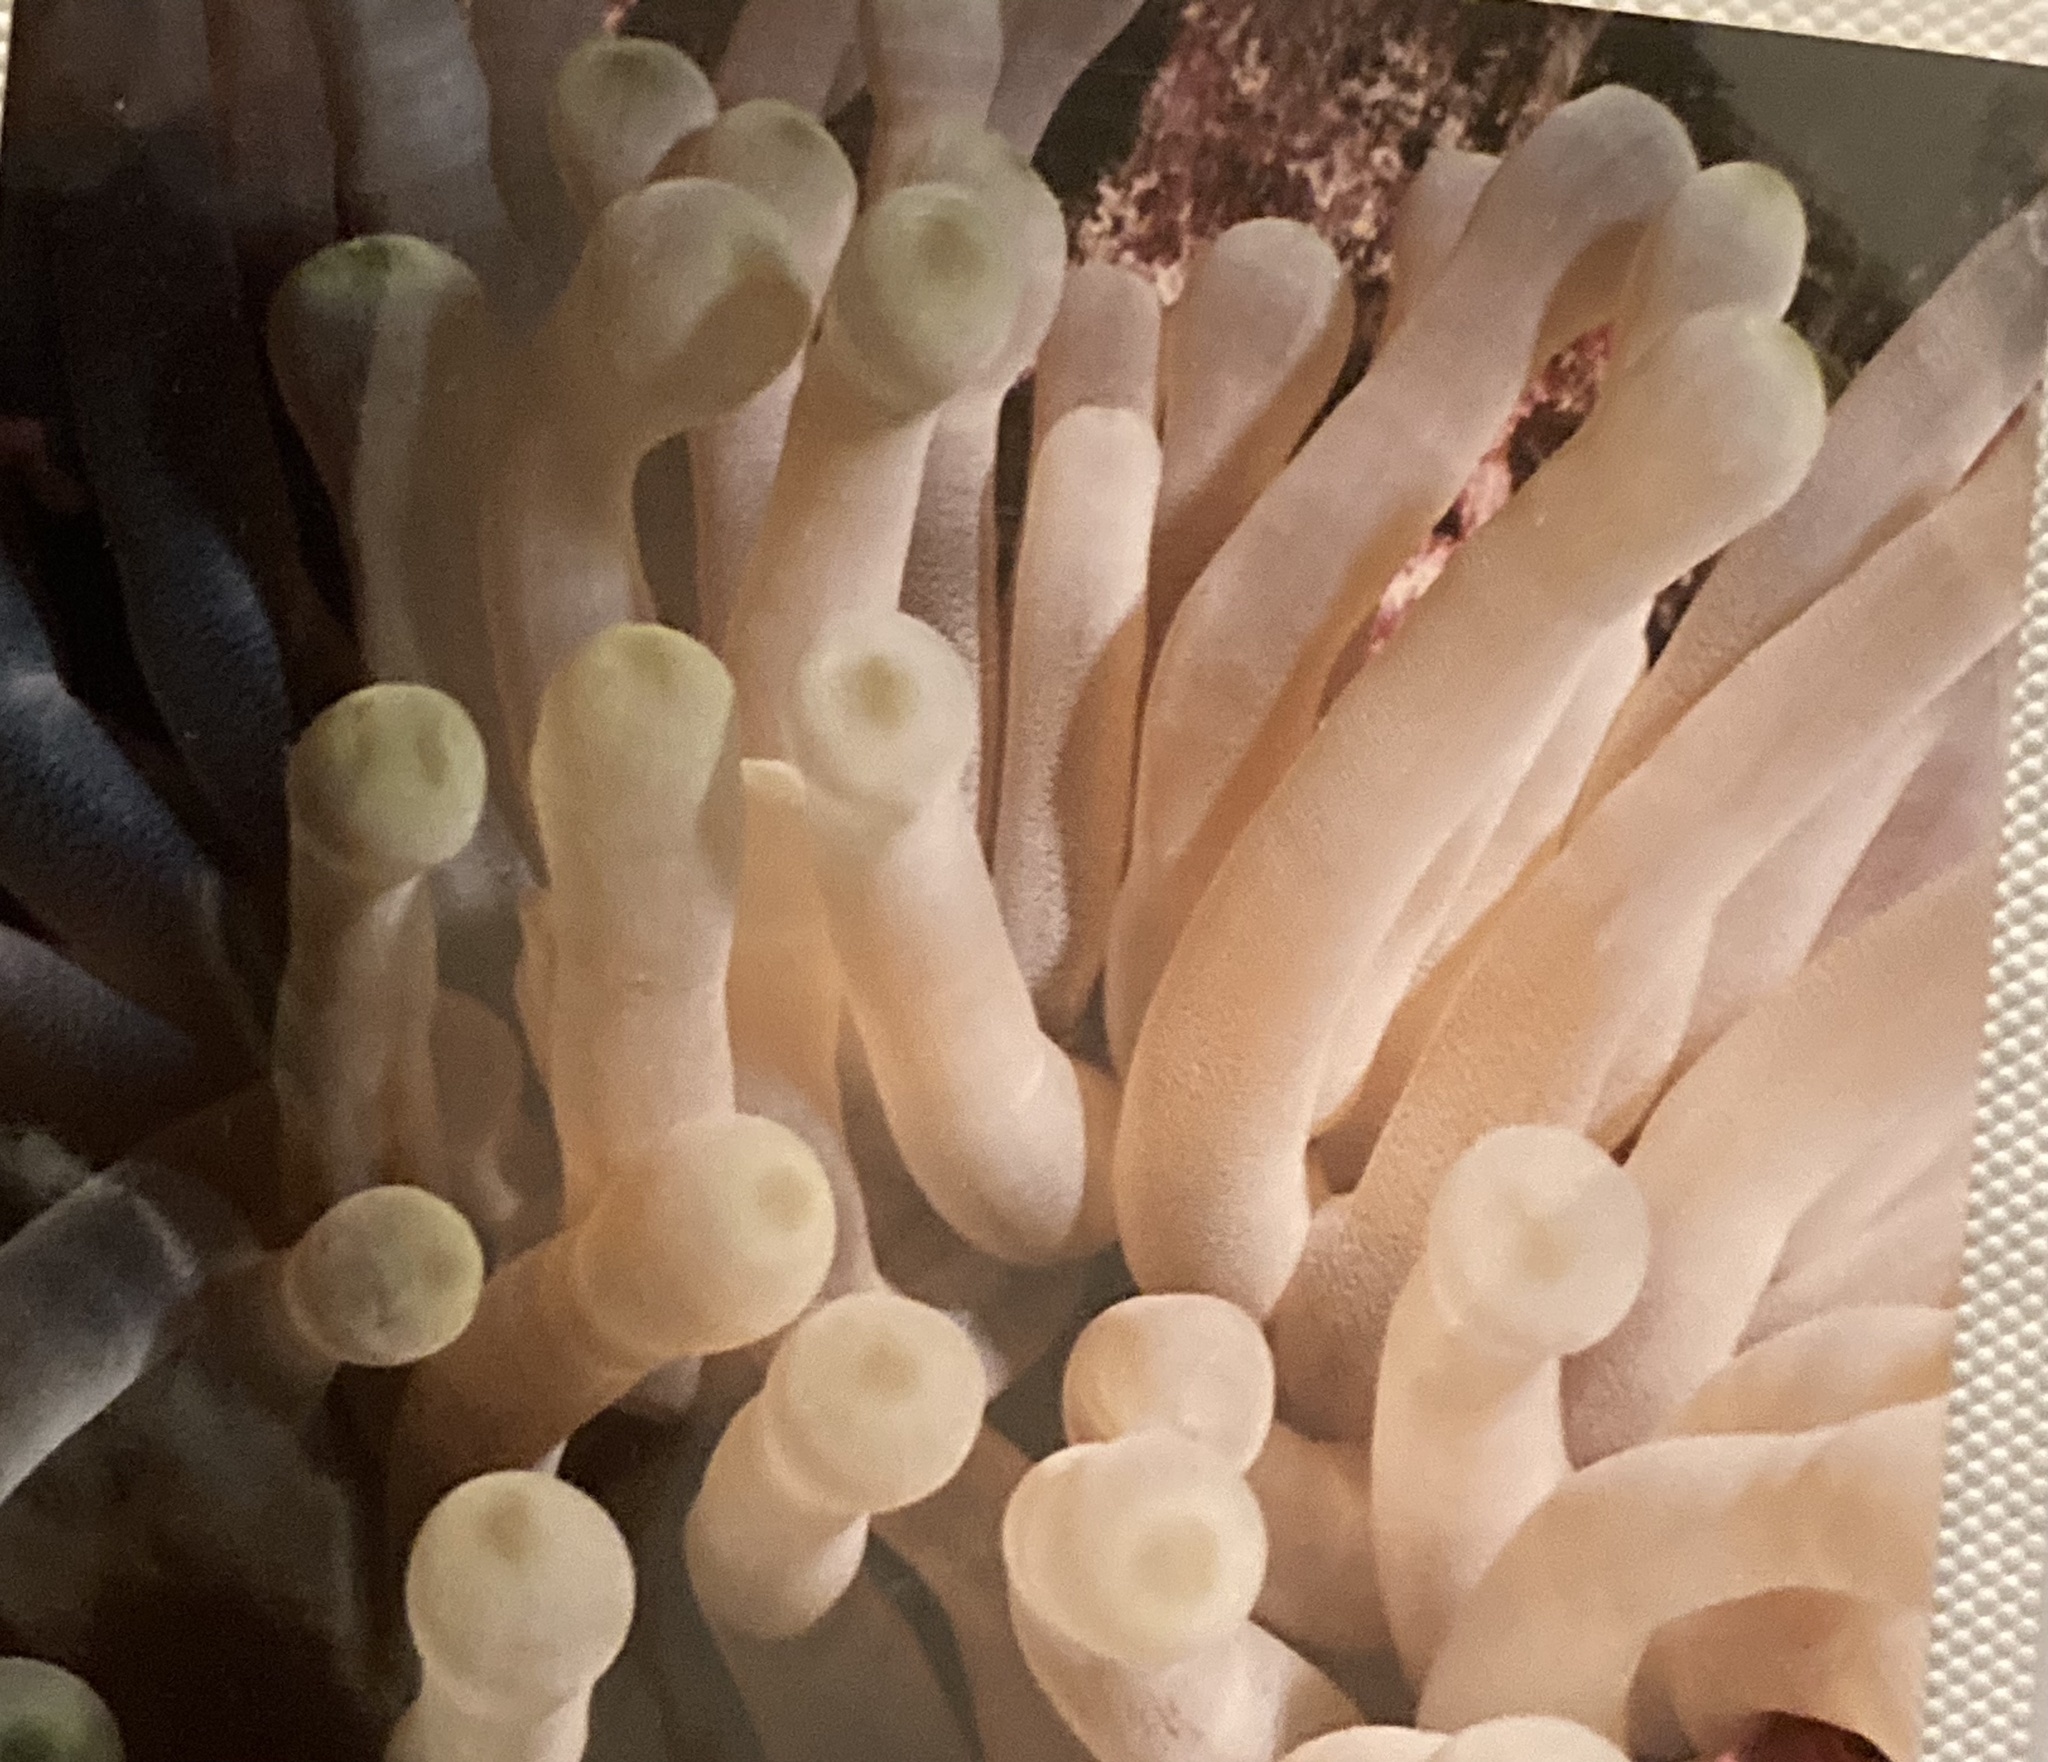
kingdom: Animalia
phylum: Cnidaria
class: Anthozoa
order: Actiniaria
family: Actiniidae
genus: Condylactis
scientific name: Condylactis gigantea
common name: Giant caribbean anemone
